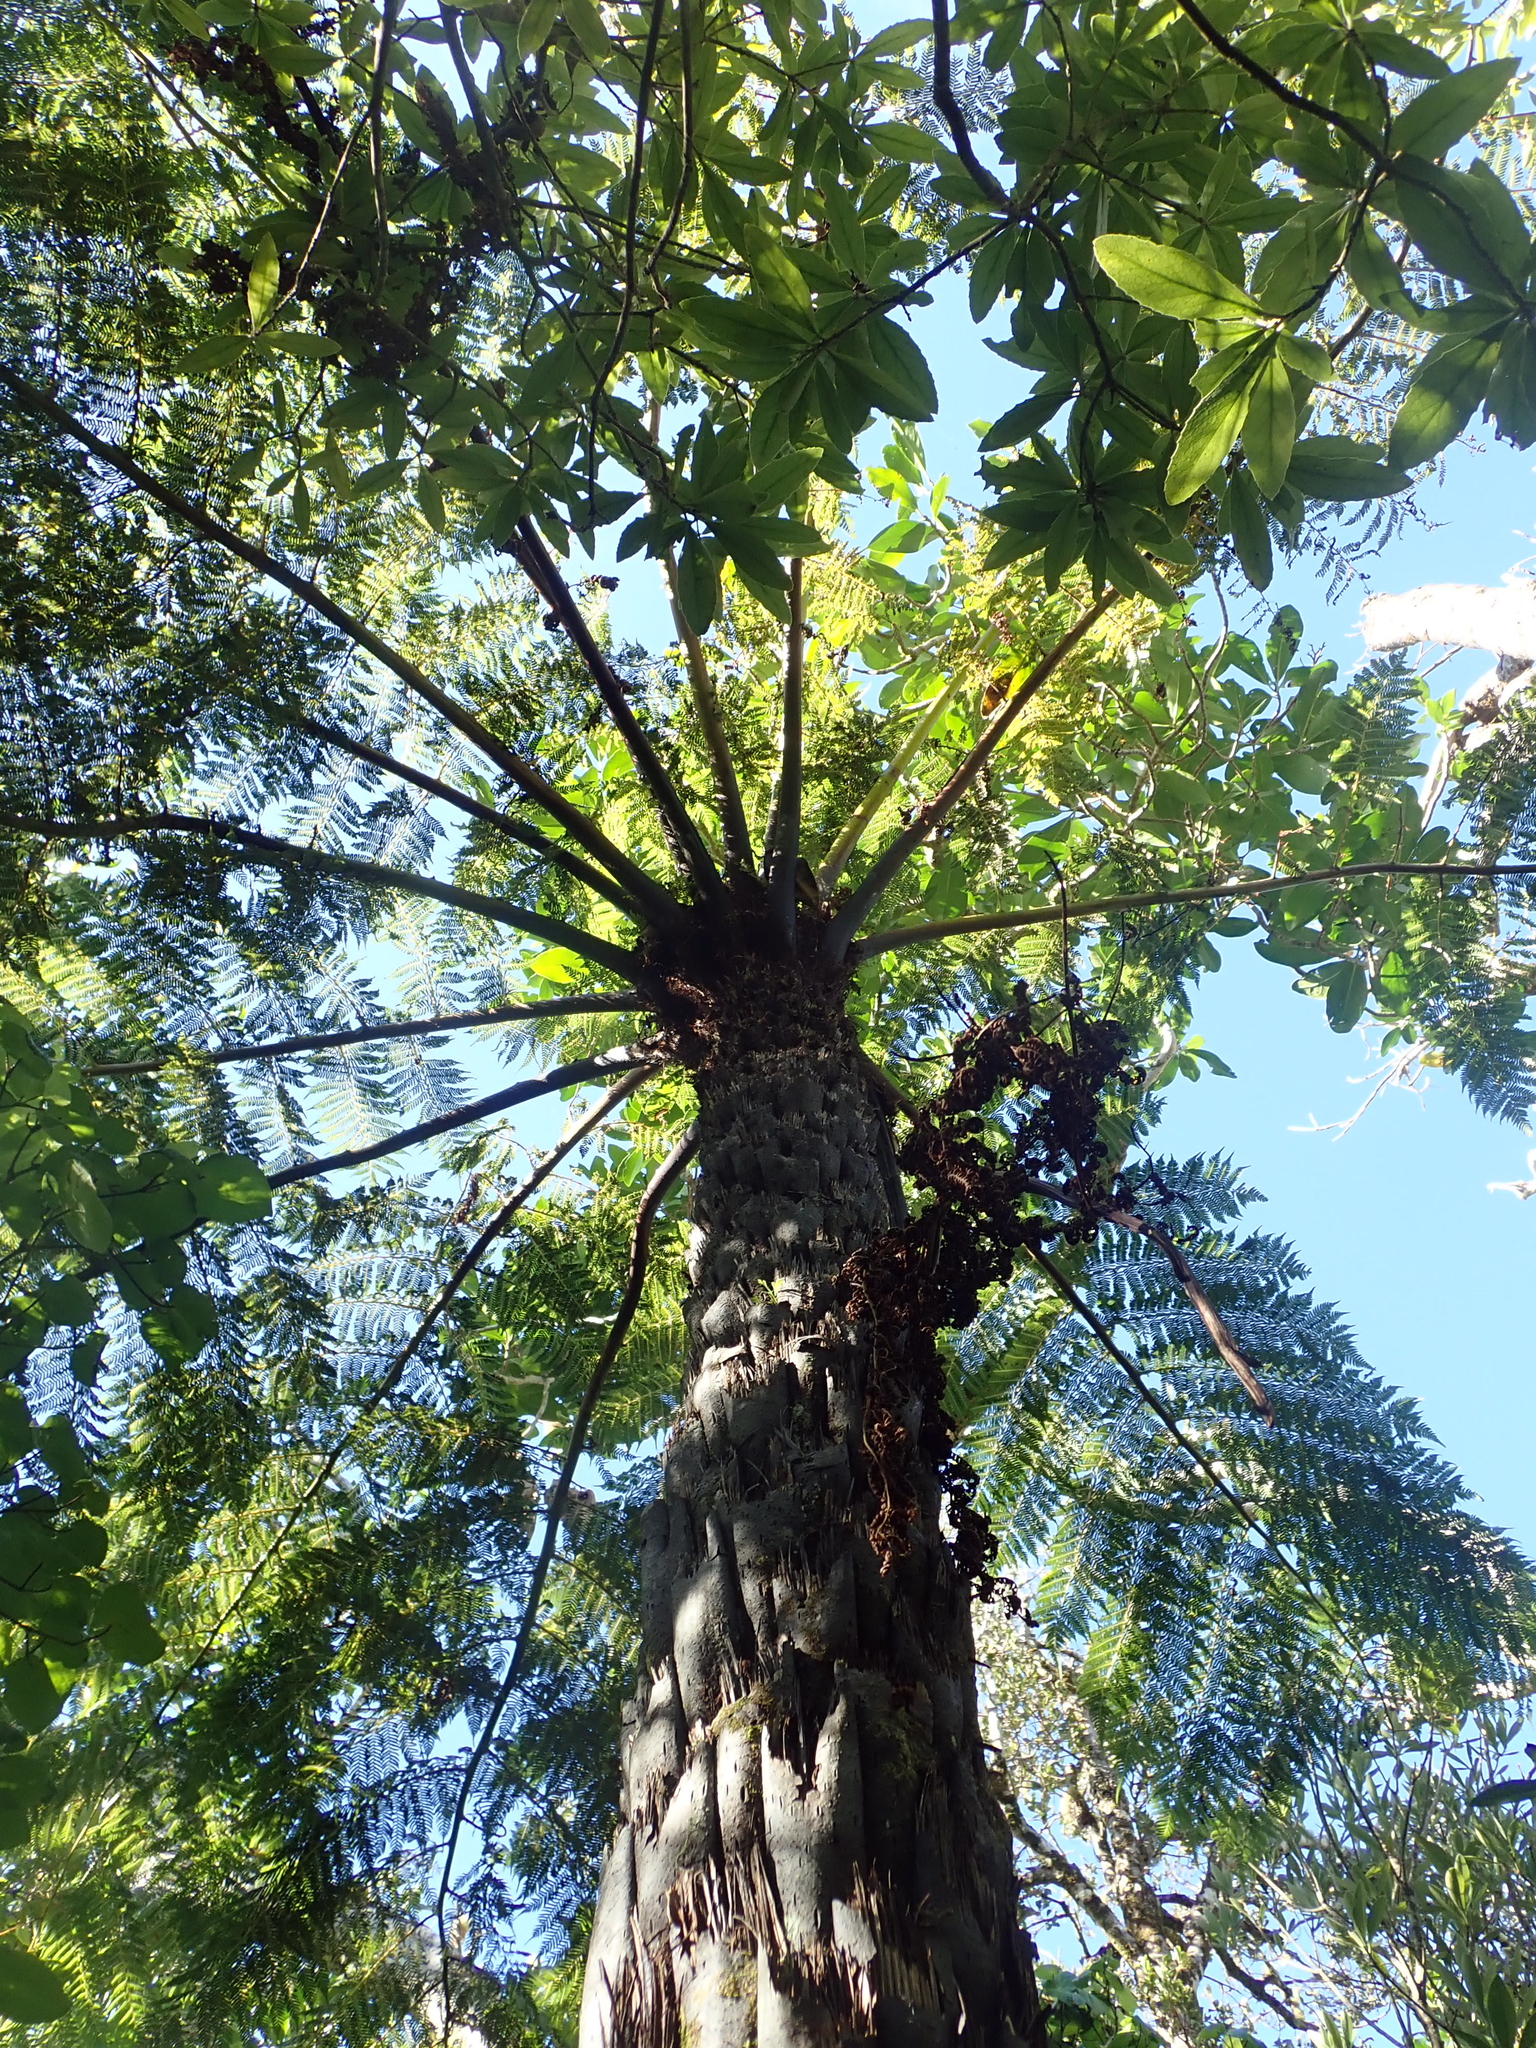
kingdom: Plantae
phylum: Tracheophyta
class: Polypodiopsida
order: Cyatheales
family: Cyatheaceae
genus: Cyathea
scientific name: Cyathea cunninghamii
